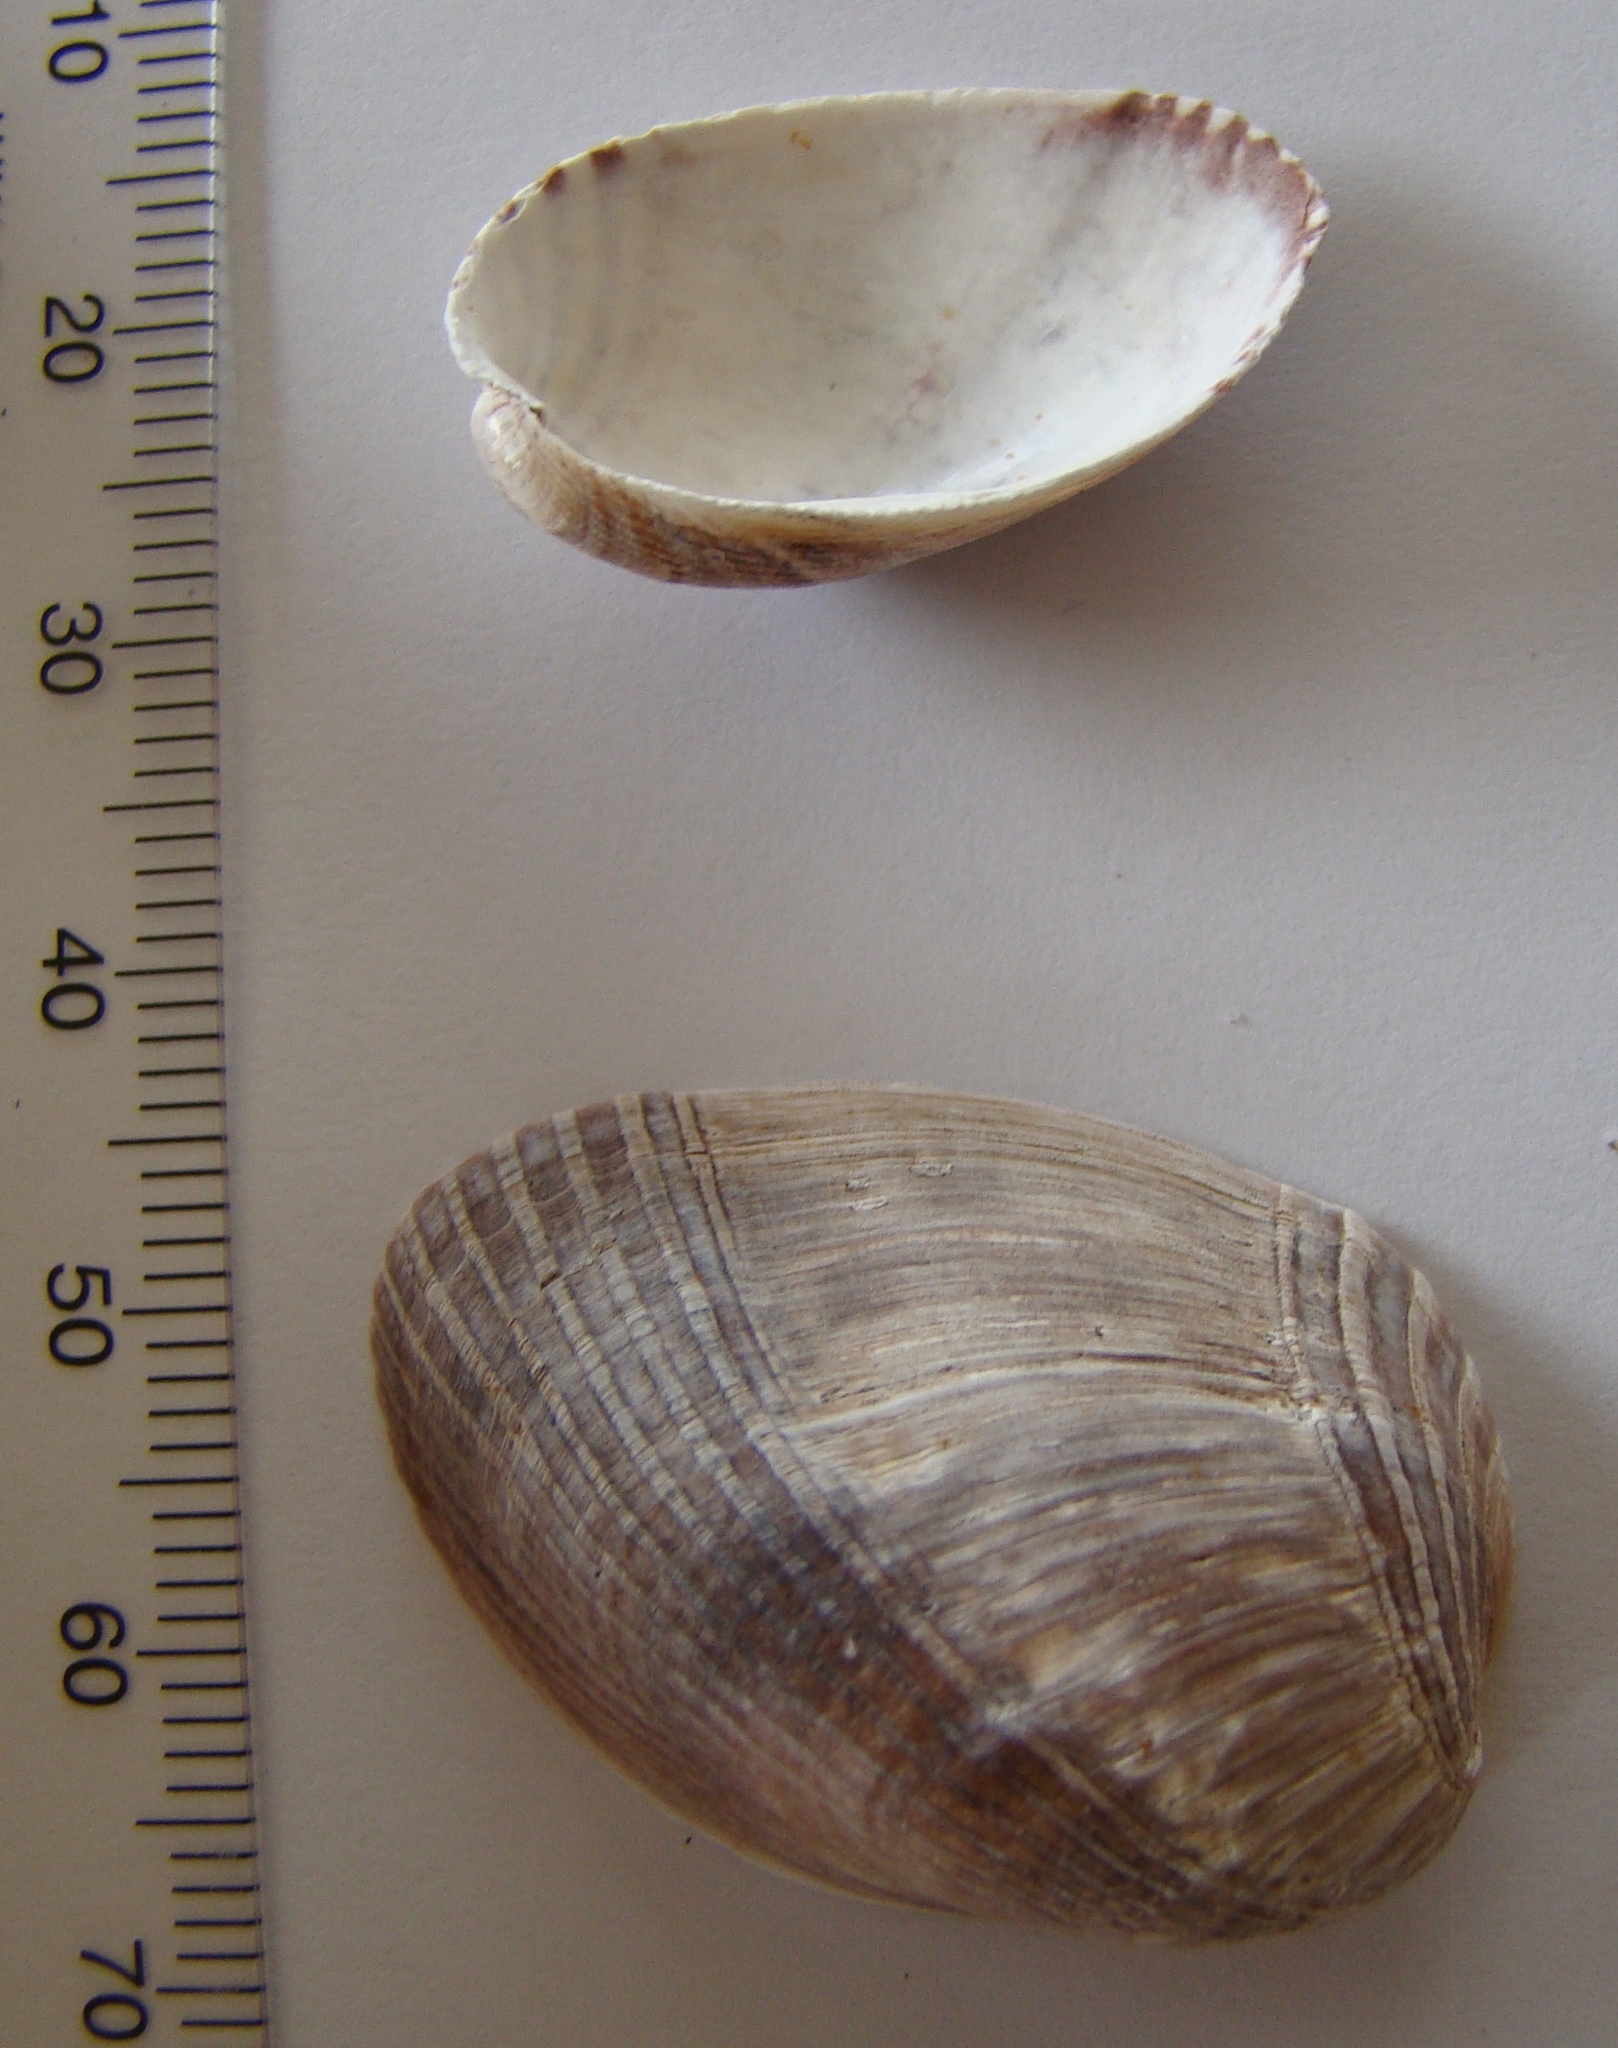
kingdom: Animalia
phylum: Mollusca
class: Bivalvia
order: Mytilida
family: Mytilidae
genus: Musculus
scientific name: Musculus impactus
